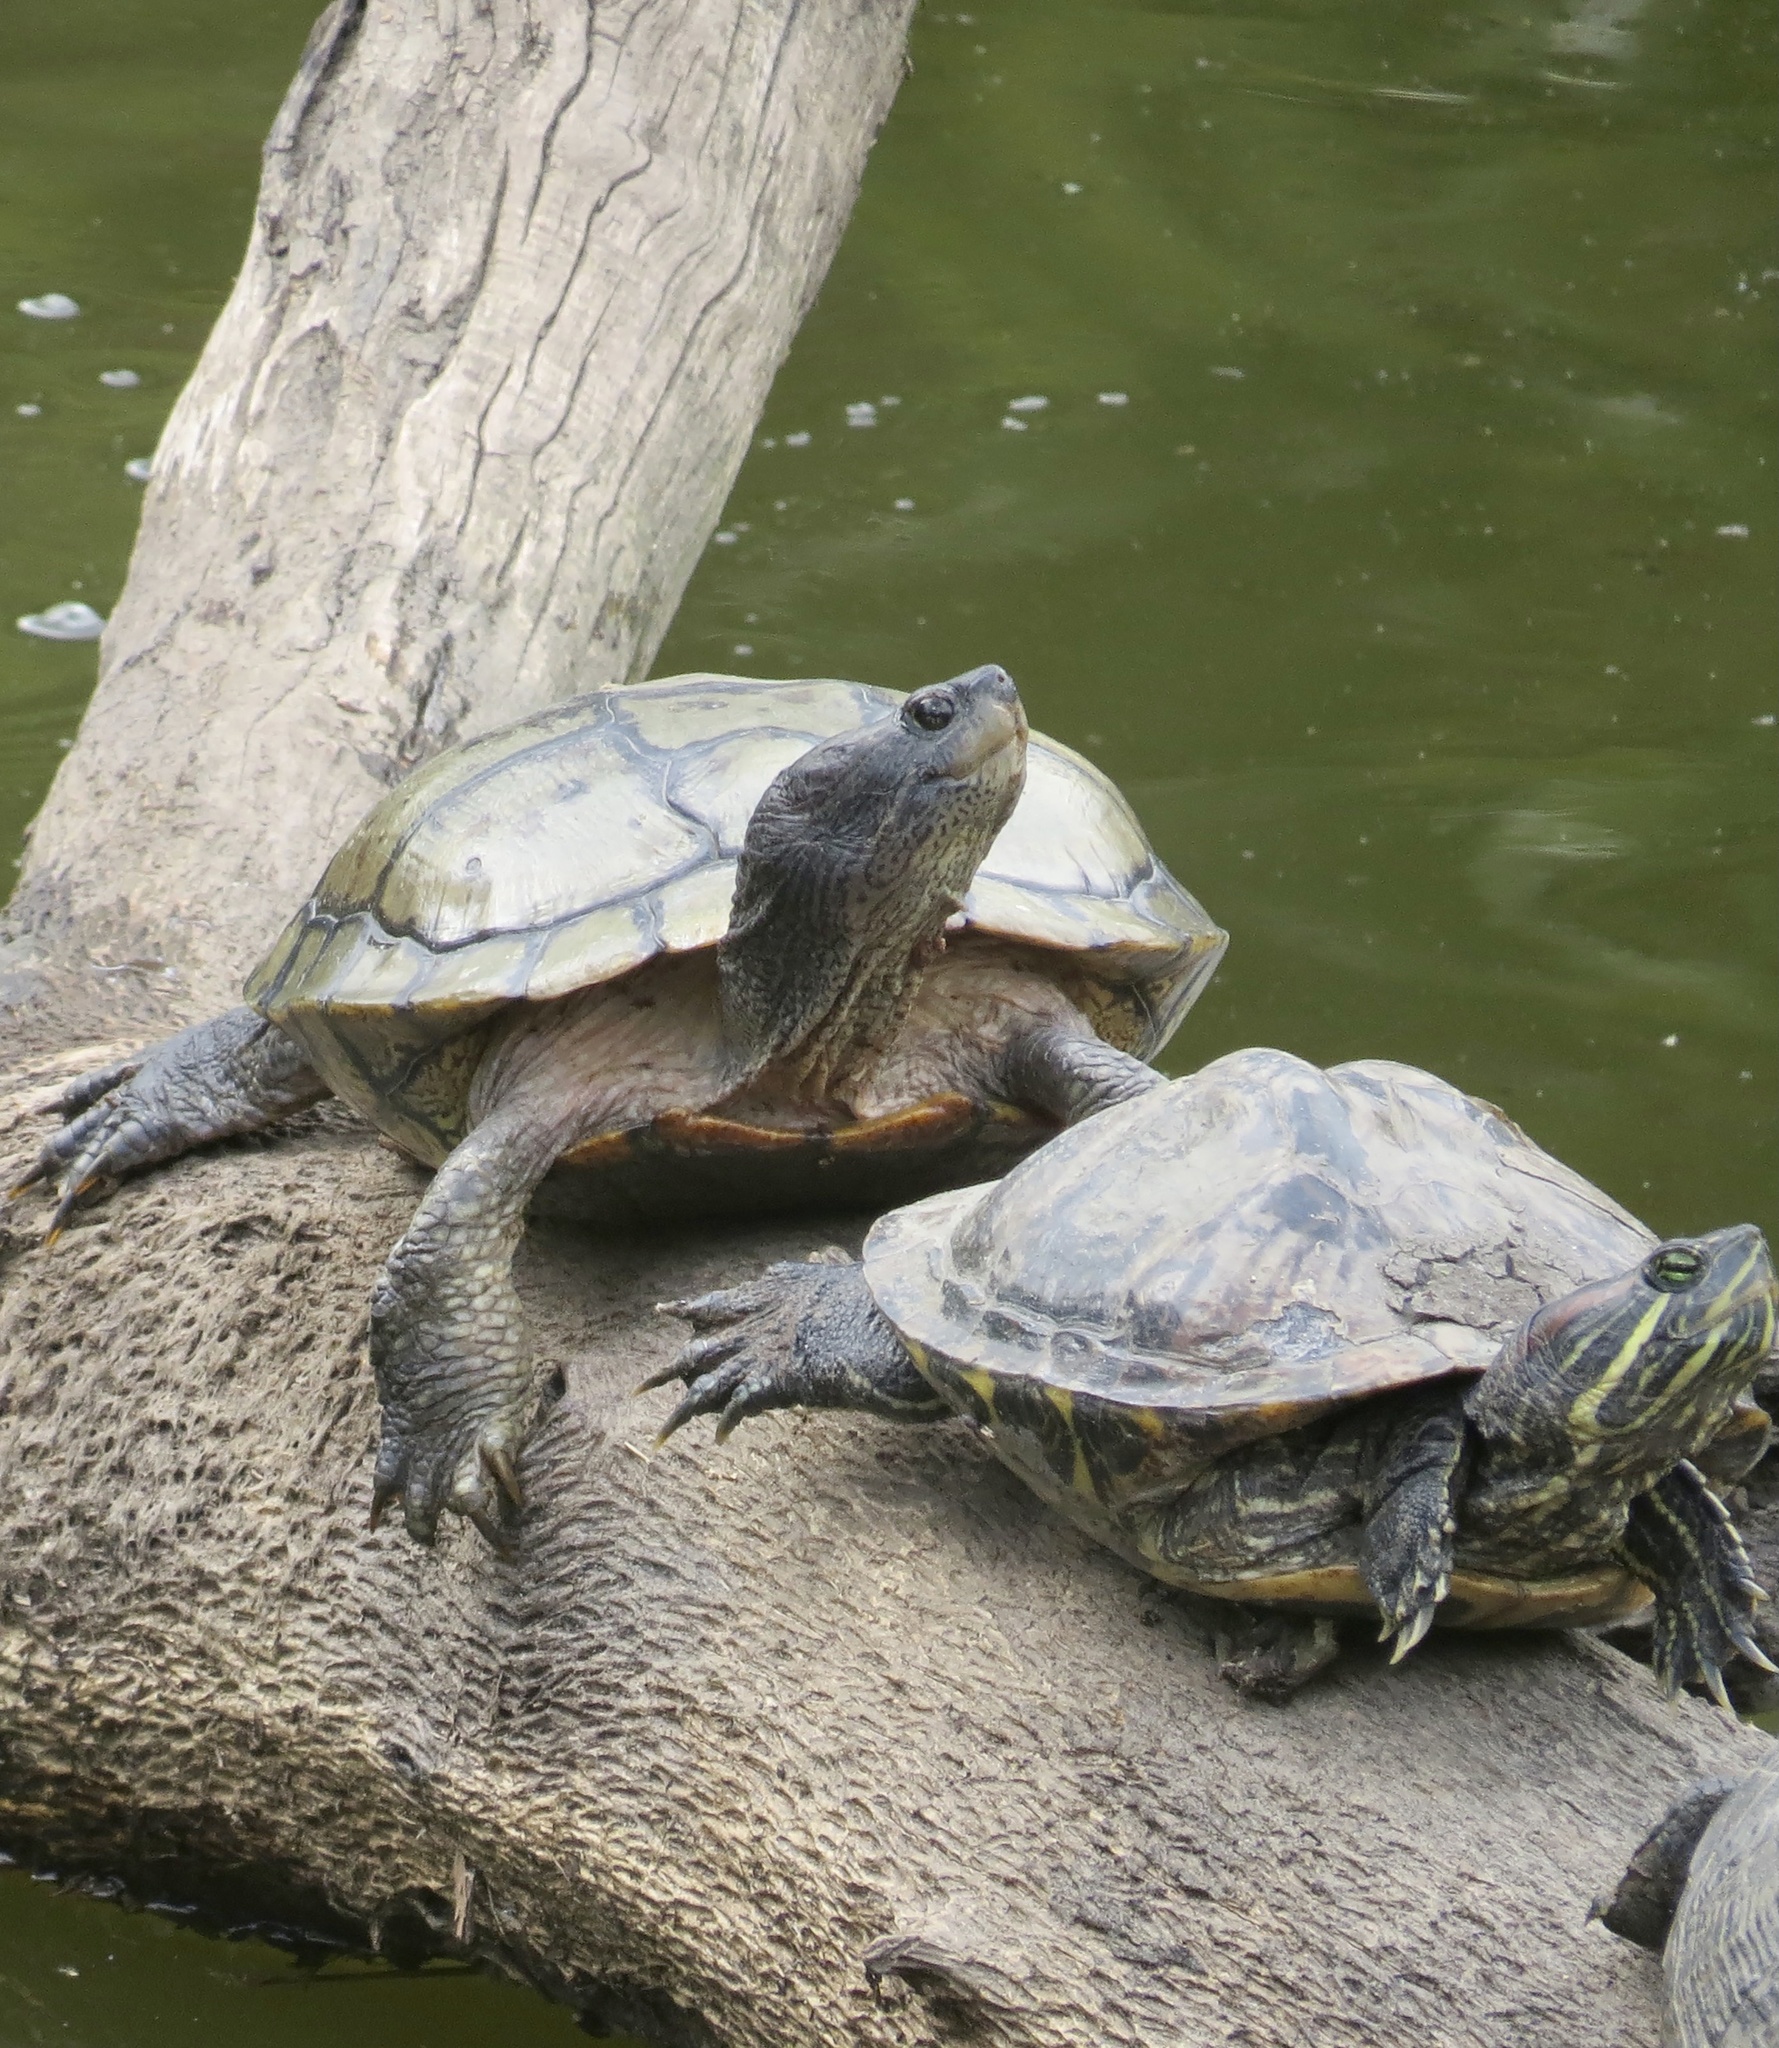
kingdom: Animalia
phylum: Chordata
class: Testudines
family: Emydidae
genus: Trachemys
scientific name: Trachemys scripta
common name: Slider
